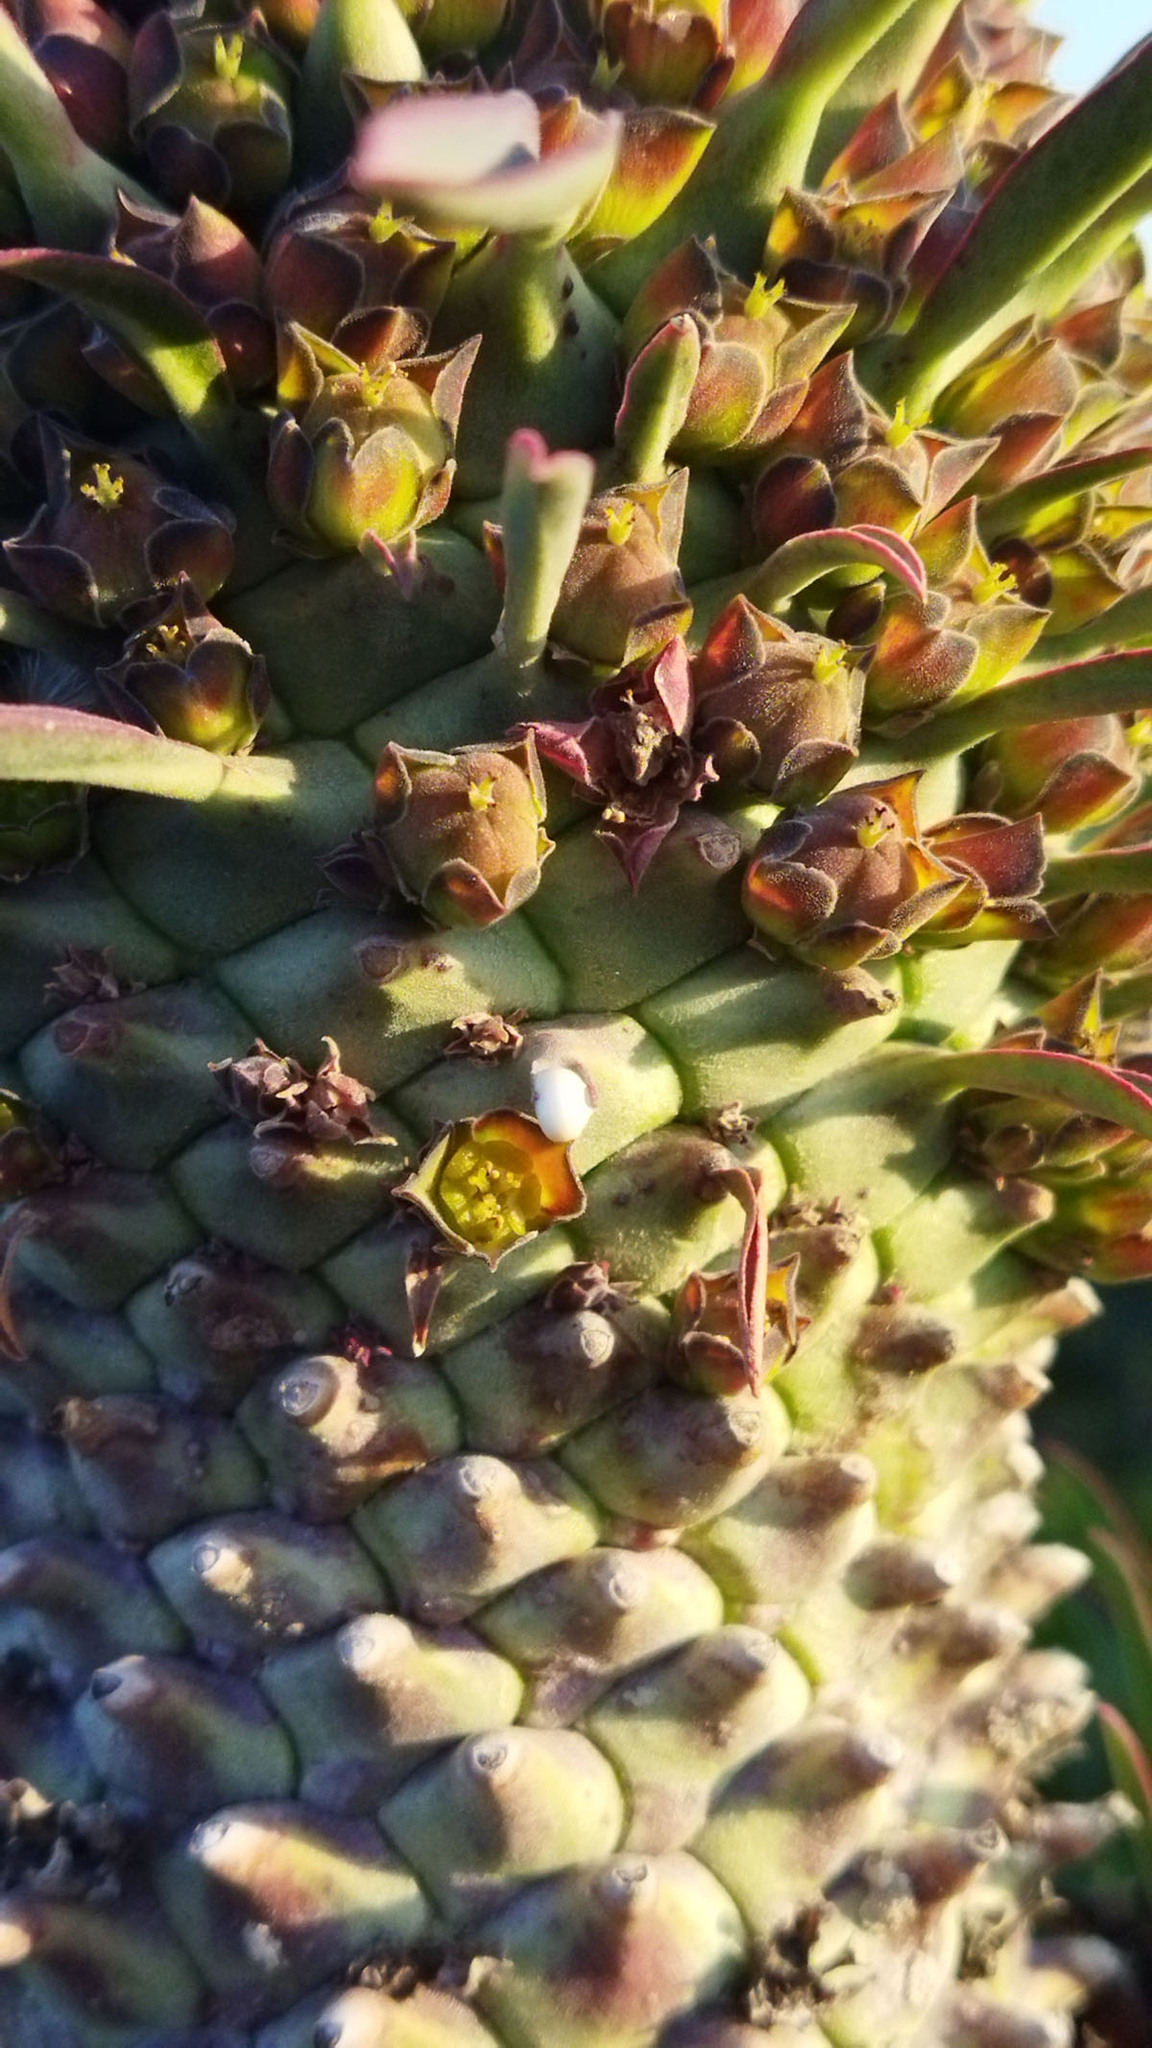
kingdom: Plantae
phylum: Tracheophyta
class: Magnoliopsida
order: Malpighiales
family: Euphorbiaceae
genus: Euphorbia
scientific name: Euphorbia clandestina
